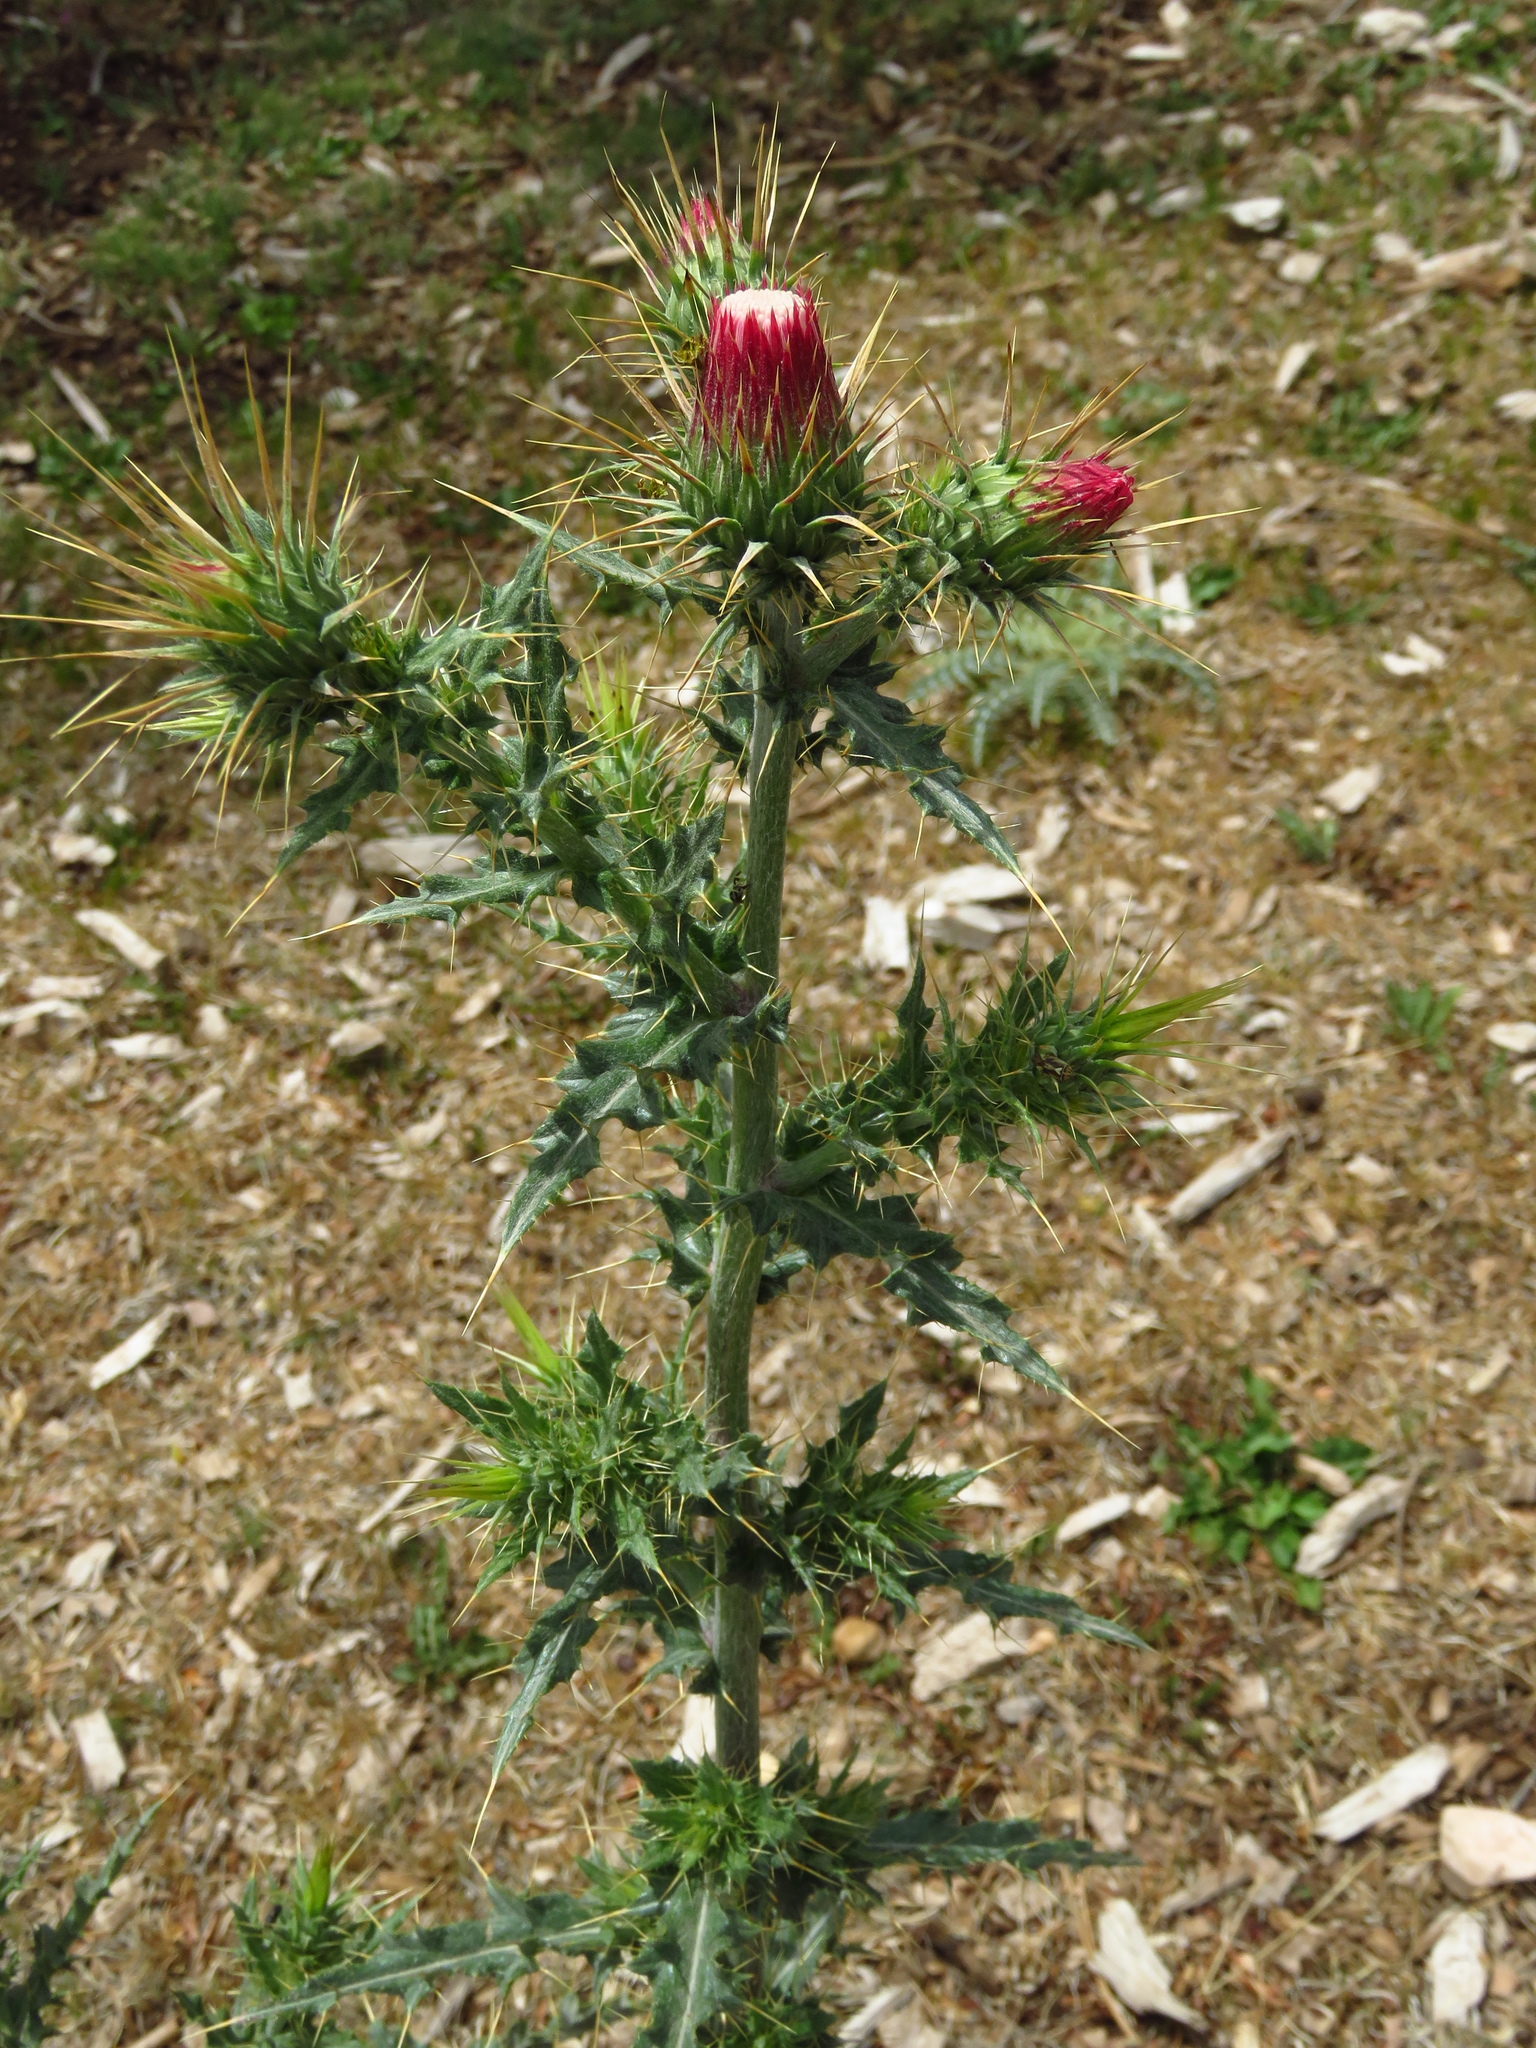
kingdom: Plantae
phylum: Tracheophyta
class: Magnoliopsida
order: Asterales
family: Asteraceae
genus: Cirsium
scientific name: Cirsium arizonicum
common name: Arizona thistle
